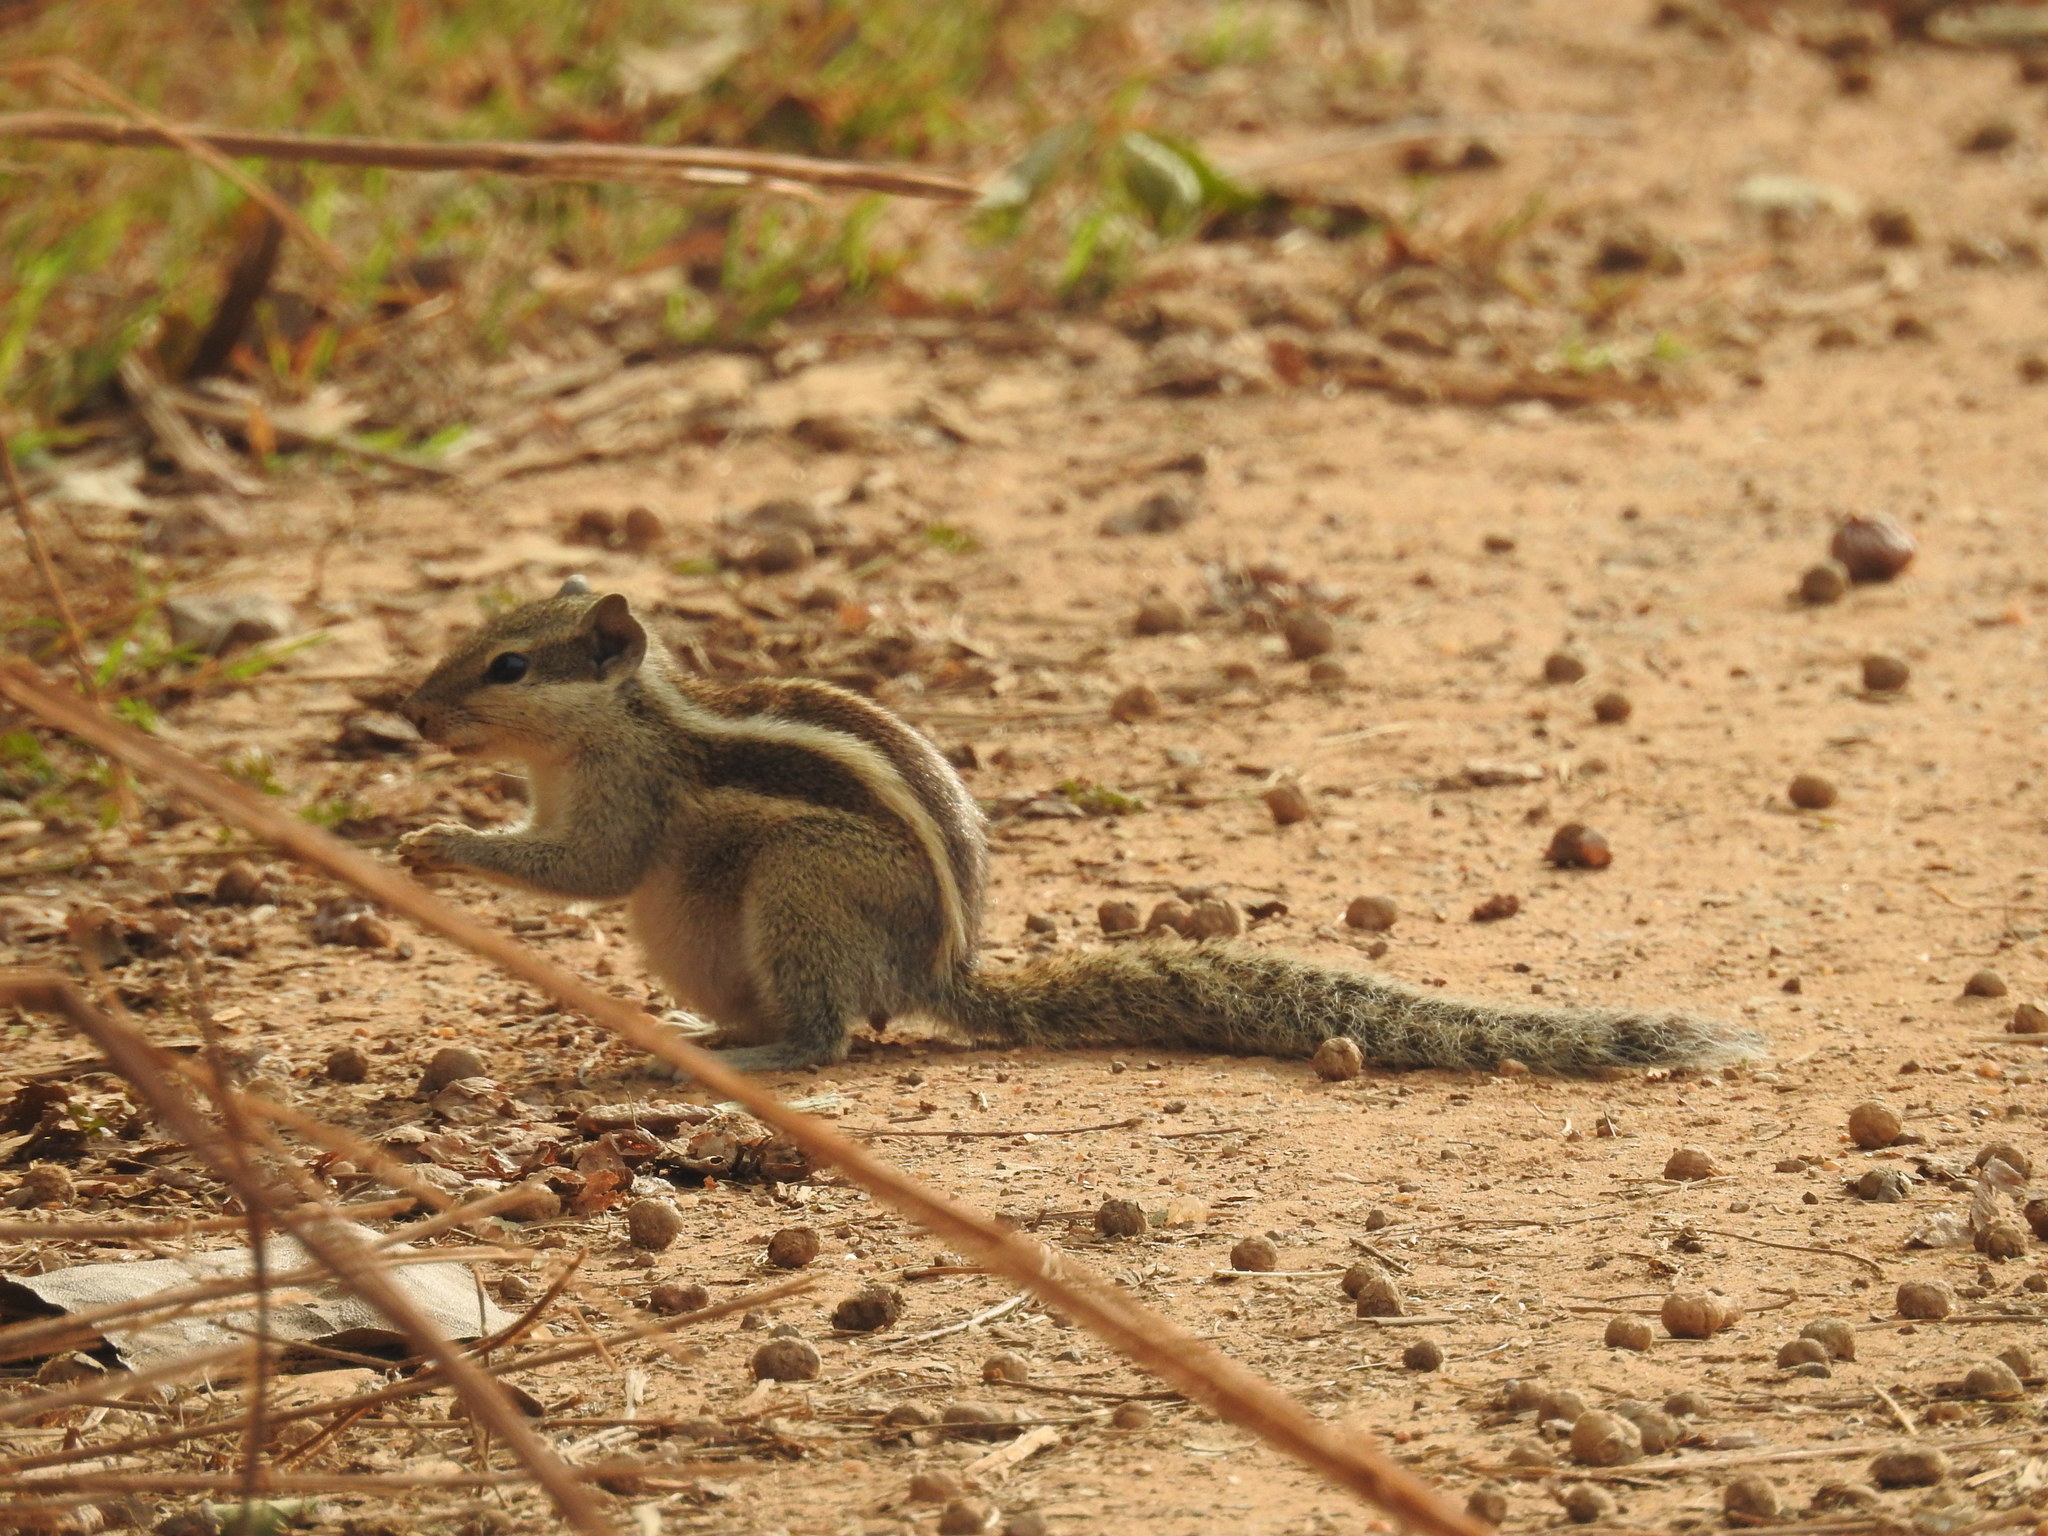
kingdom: Animalia
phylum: Chordata
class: Mammalia
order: Rodentia
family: Sciuridae
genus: Funambulus
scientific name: Funambulus pennantii
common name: Northern palm squirrel
